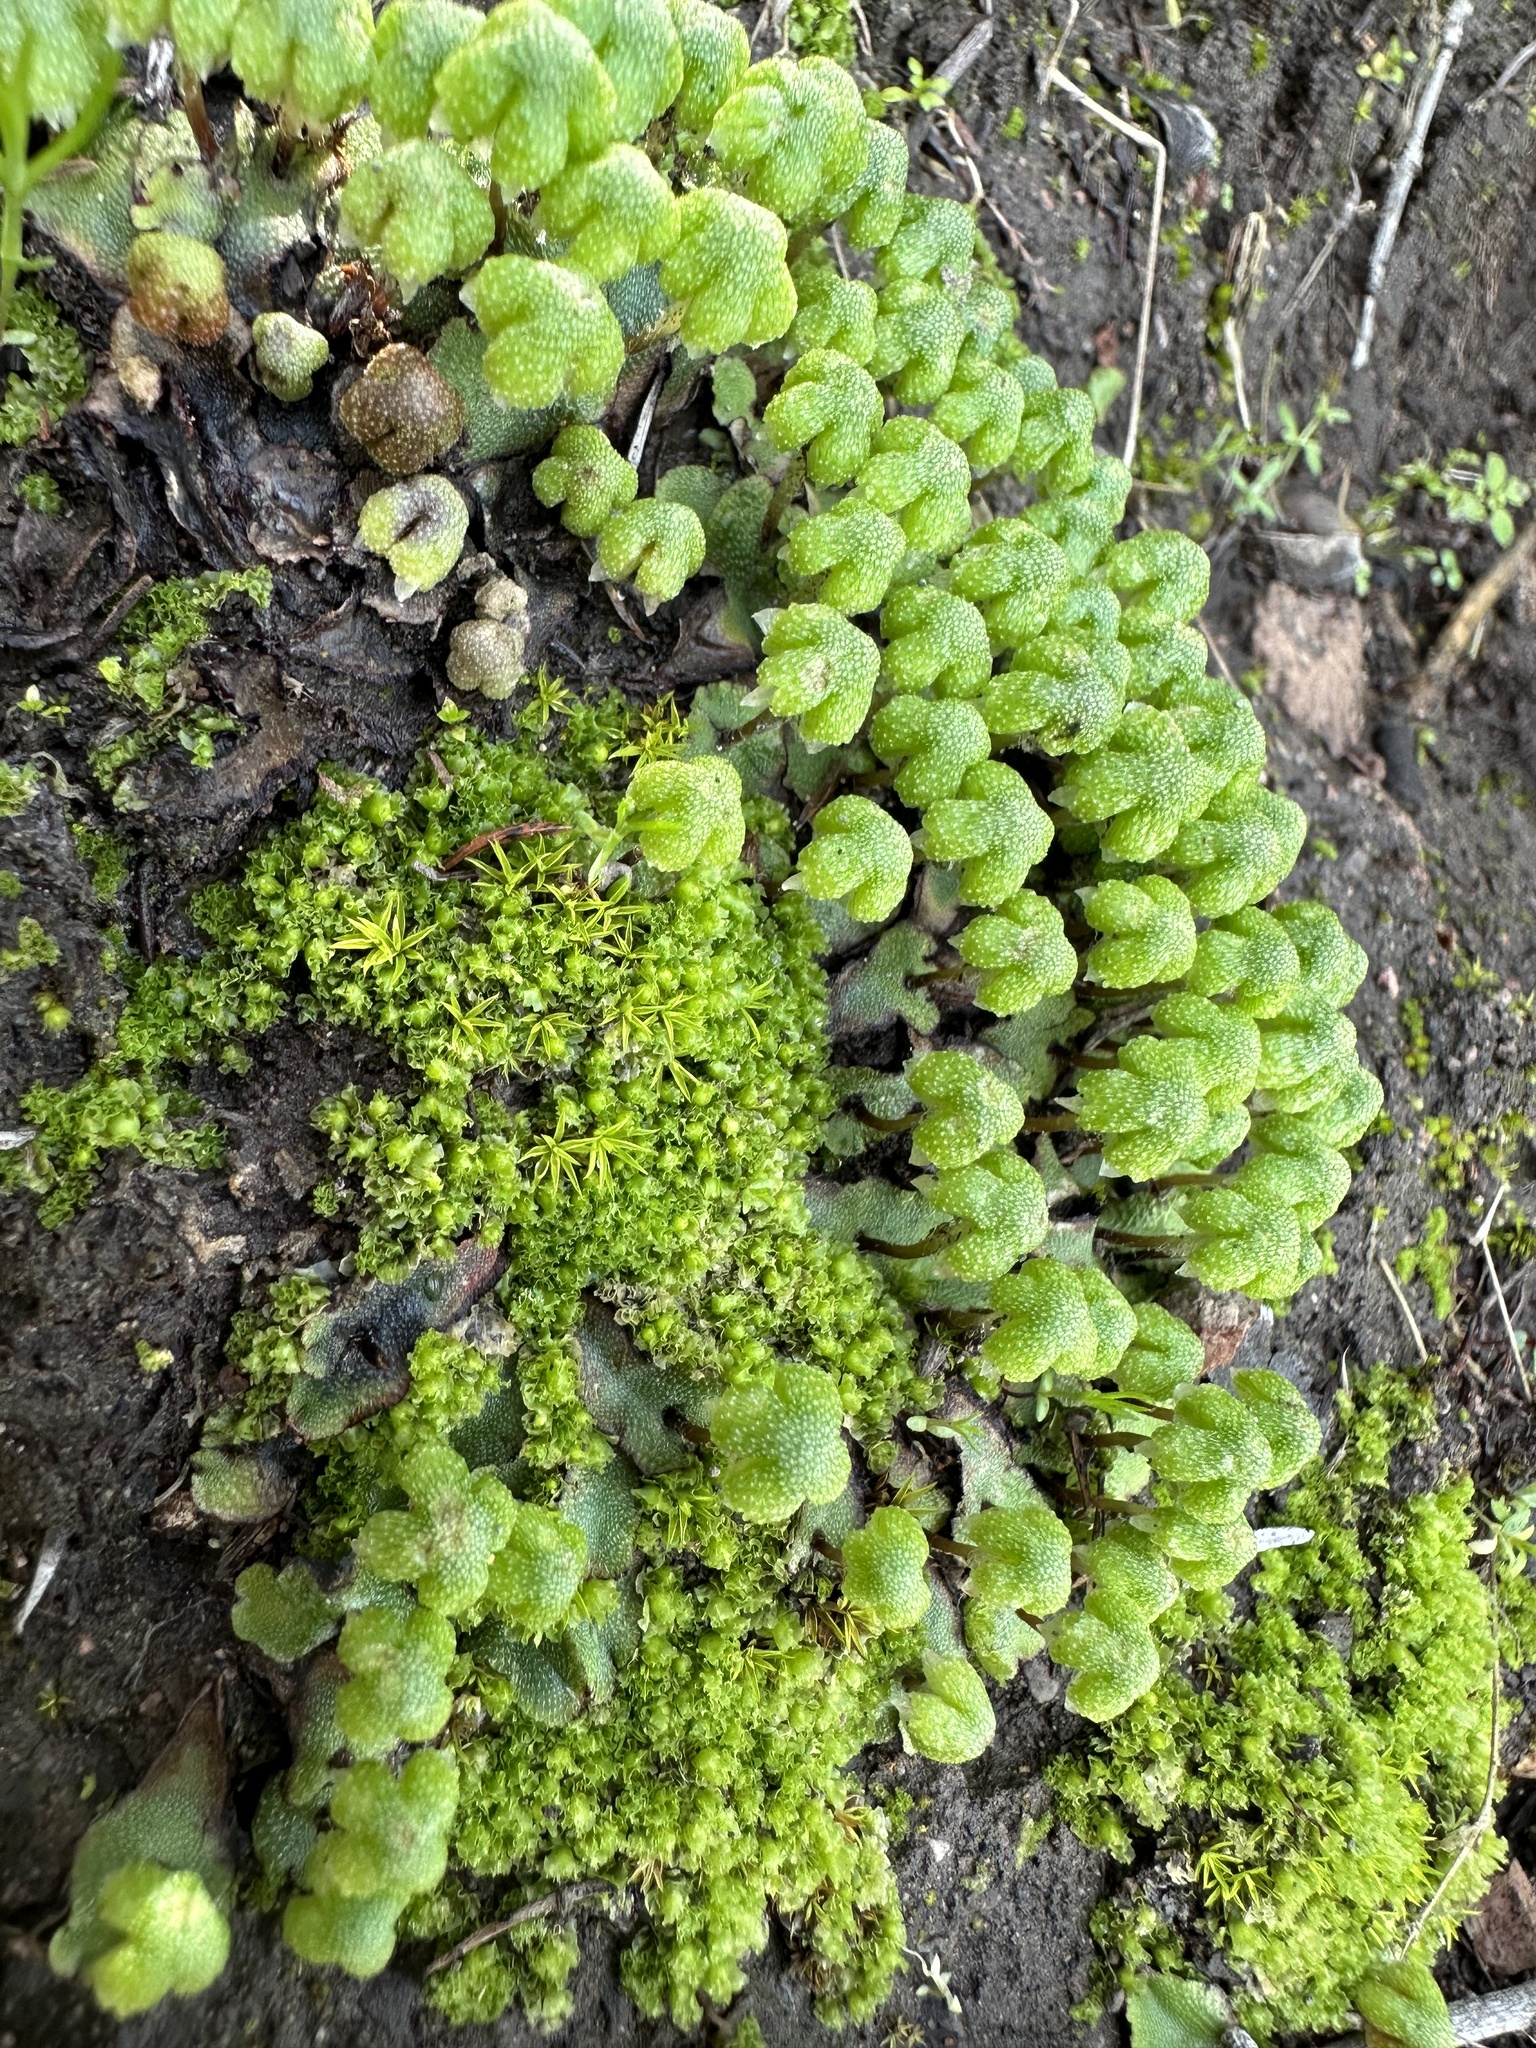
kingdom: Plantae
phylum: Marchantiophyta
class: Marchantiopsida
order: Marchantiales
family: Aytoniaceae
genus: Asterella
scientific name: Asterella californica
